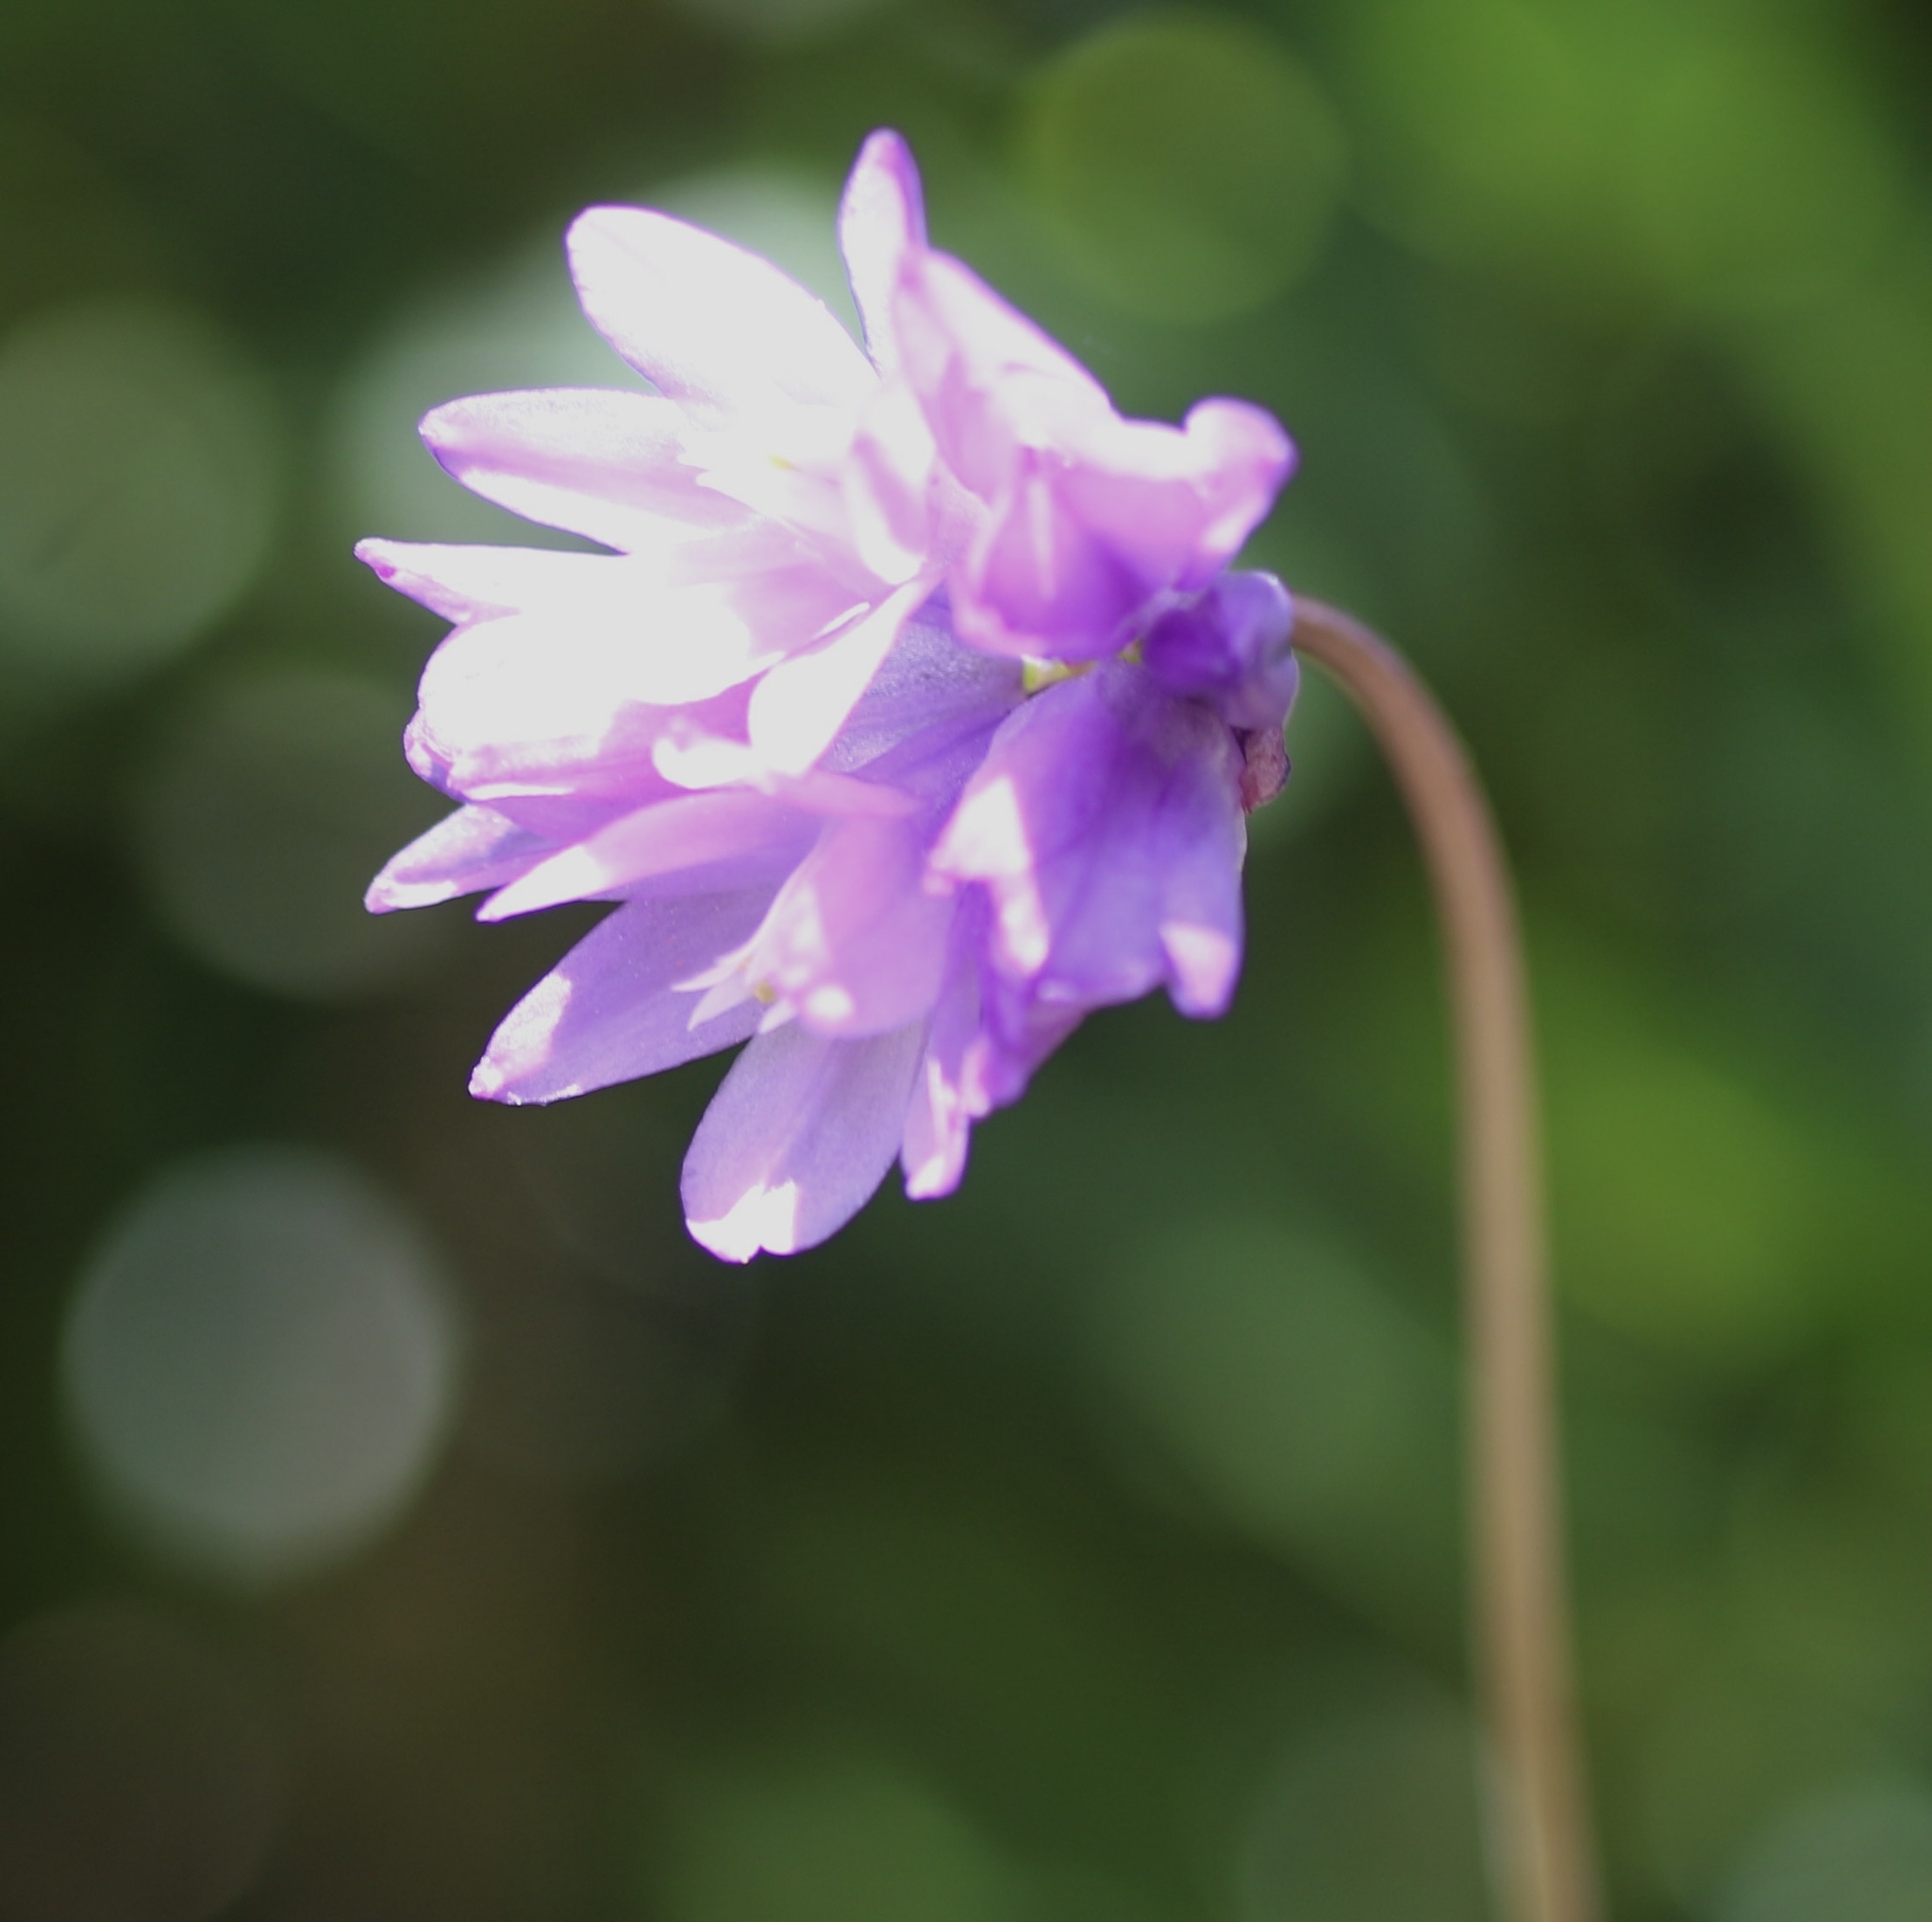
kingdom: Plantae
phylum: Tracheophyta
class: Liliopsida
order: Asparagales
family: Asparagaceae
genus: Dipterostemon
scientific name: Dipterostemon capitatus
